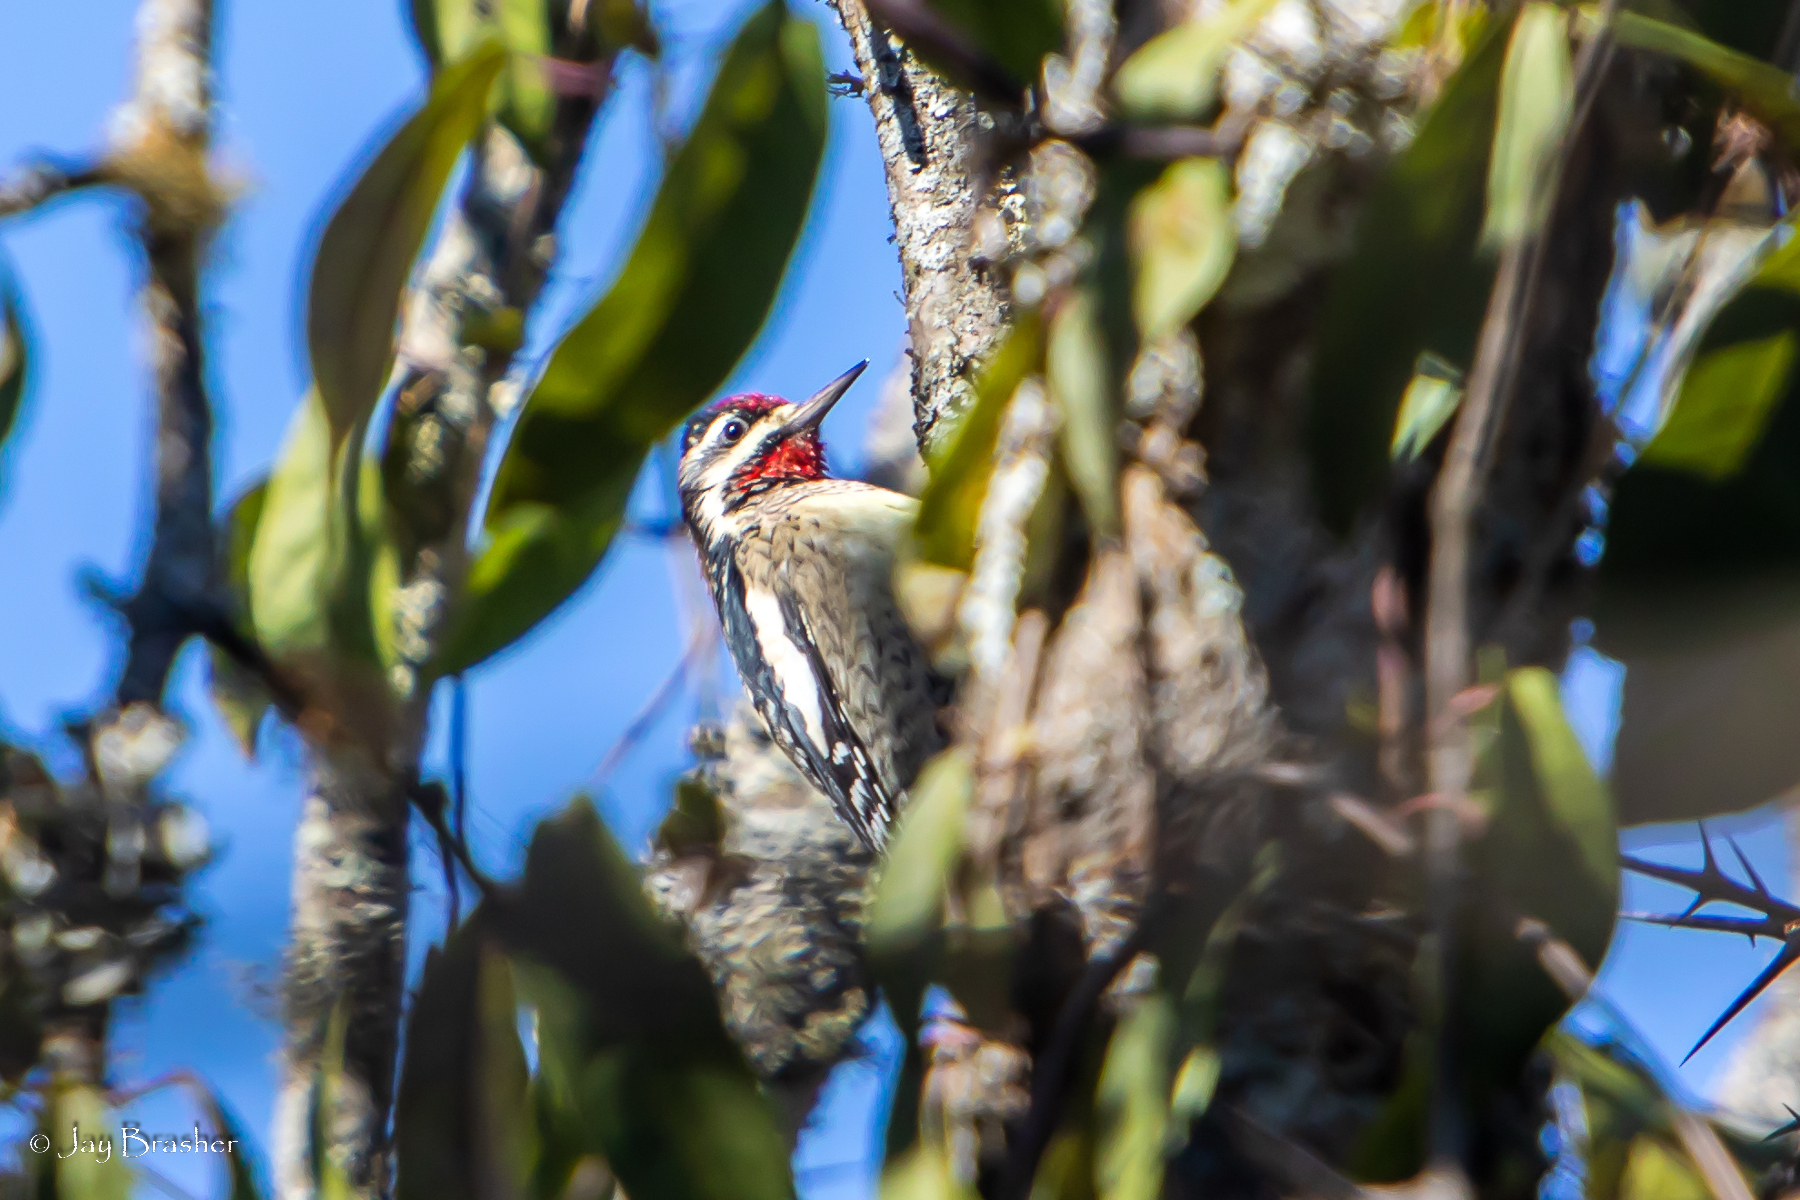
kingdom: Animalia
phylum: Chordata
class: Aves
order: Piciformes
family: Picidae
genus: Sphyrapicus
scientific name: Sphyrapicus varius
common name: Yellow-bellied sapsucker
